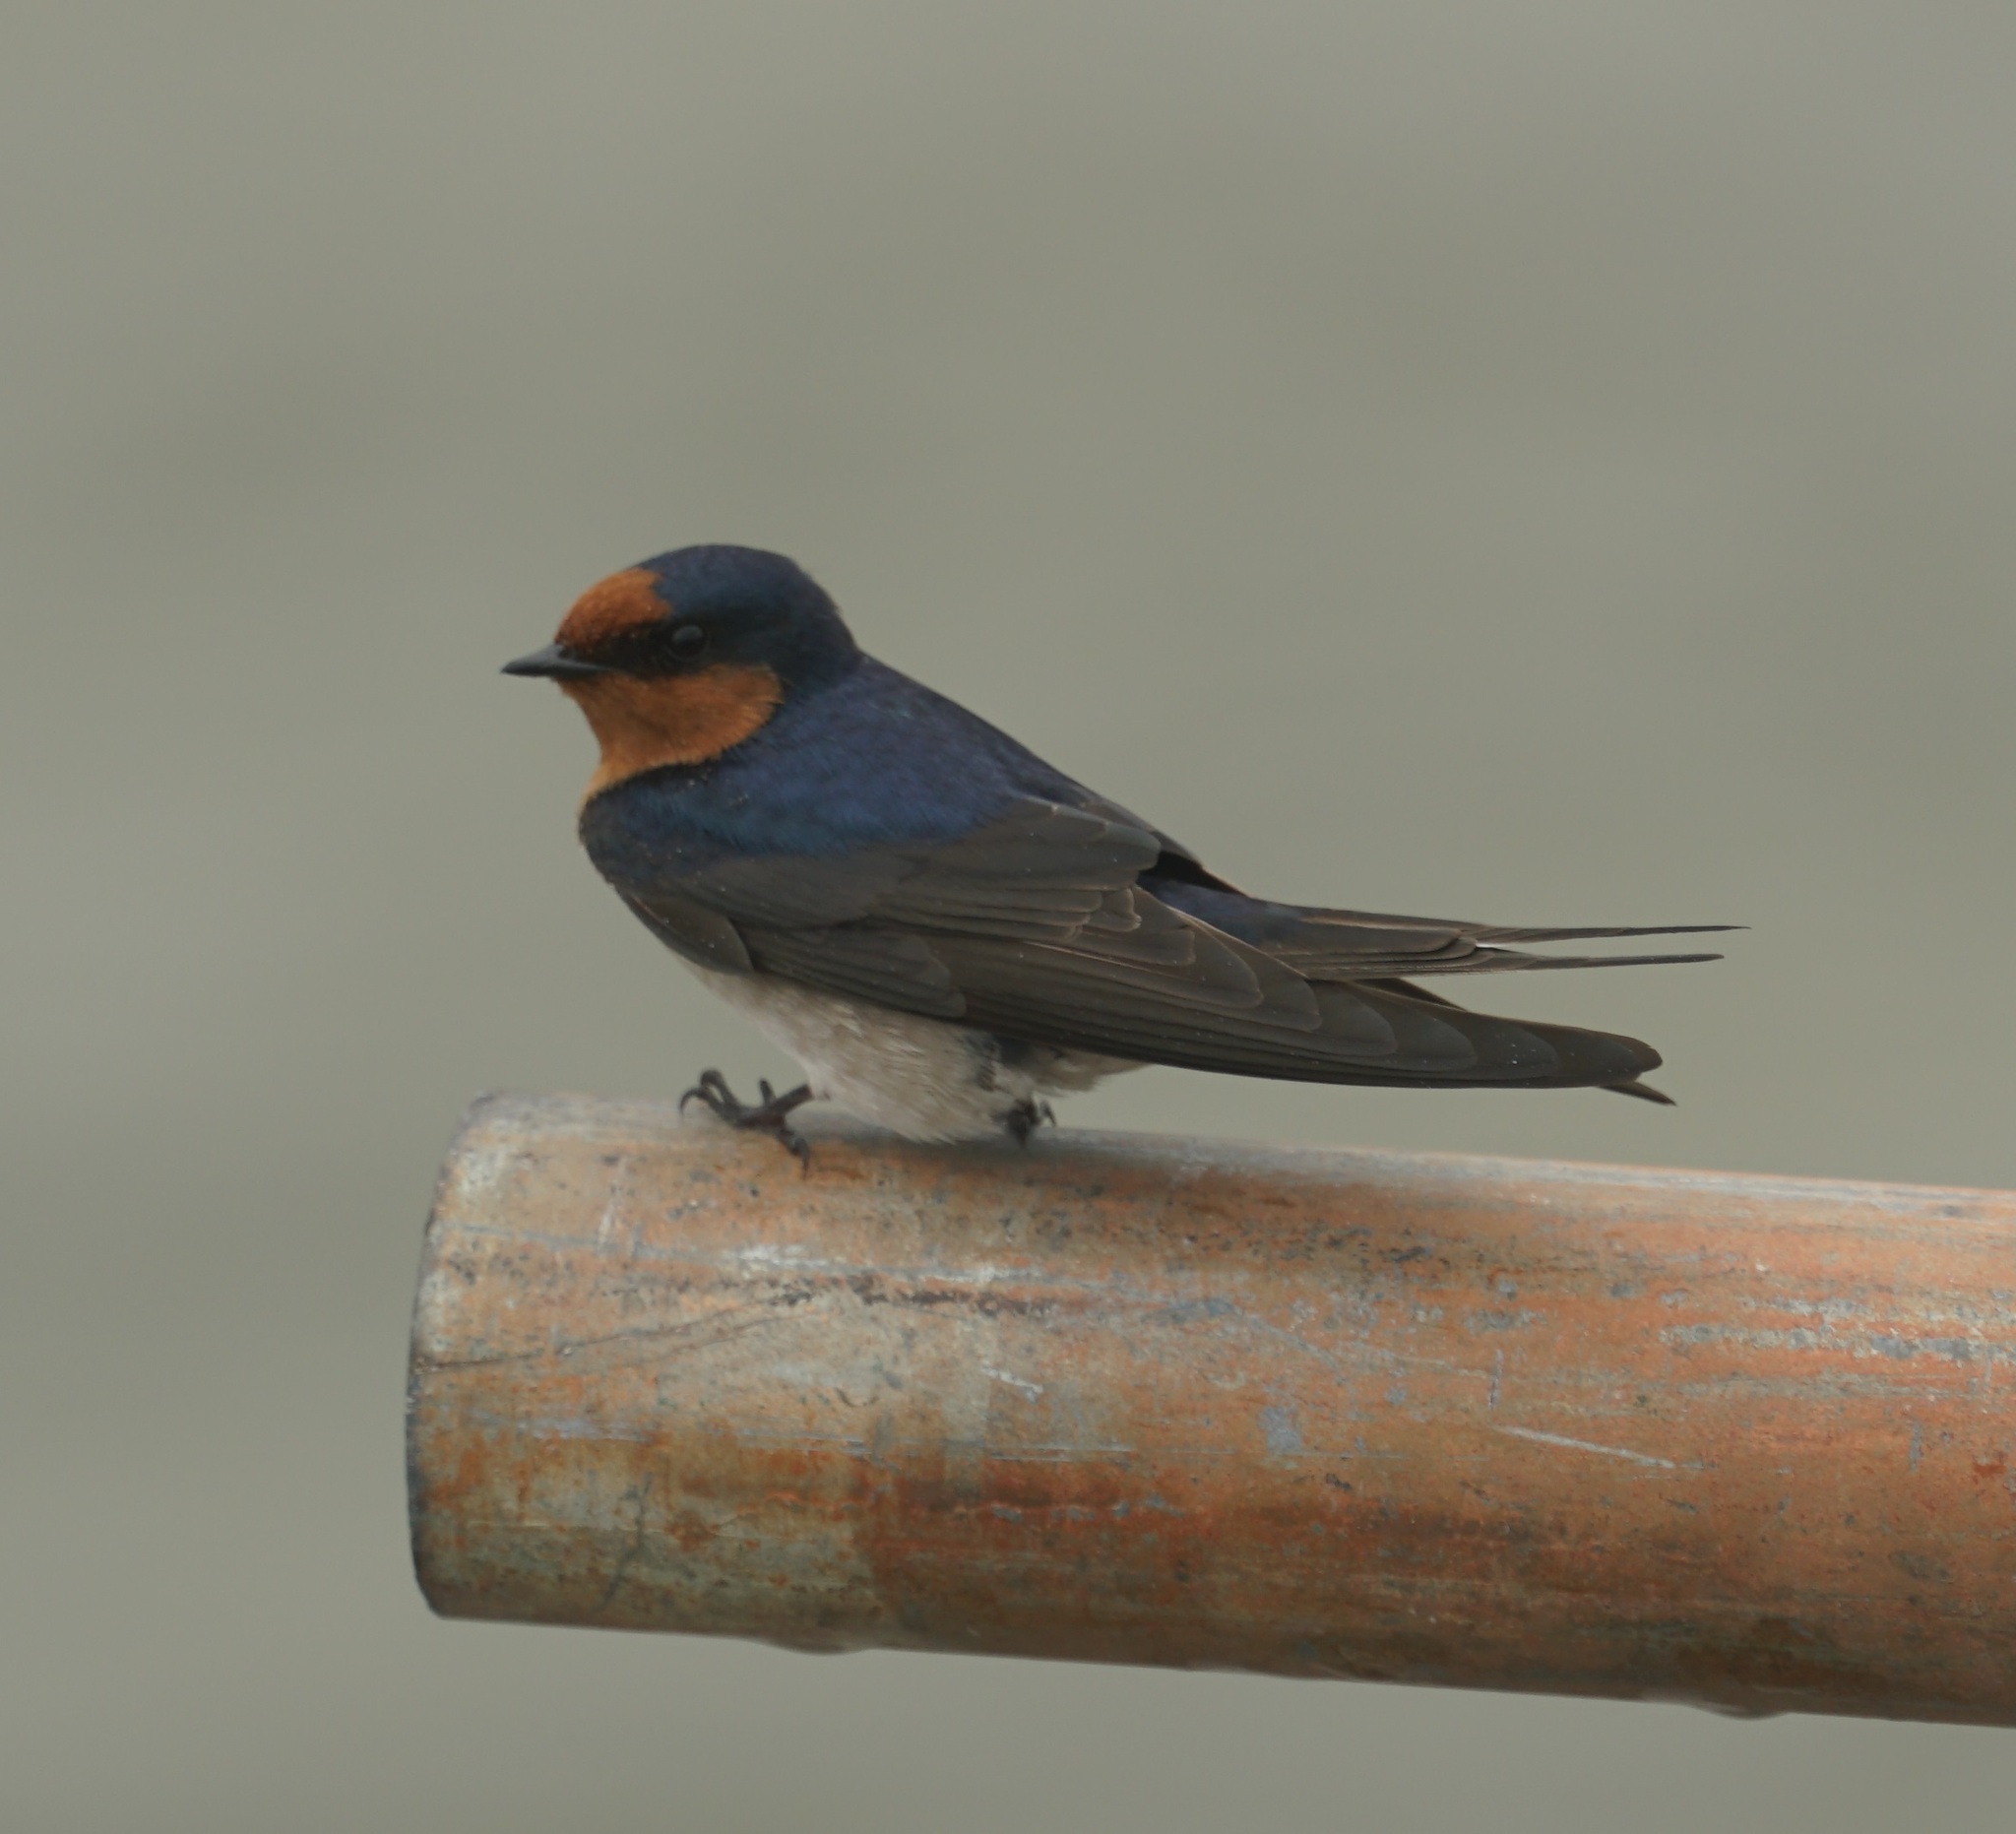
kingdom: Animalia
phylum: Chordata
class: Aves
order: Passeriformes
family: Hirundinidae
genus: Hirundo
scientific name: Hirundo neoxena
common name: Welcome swallow
